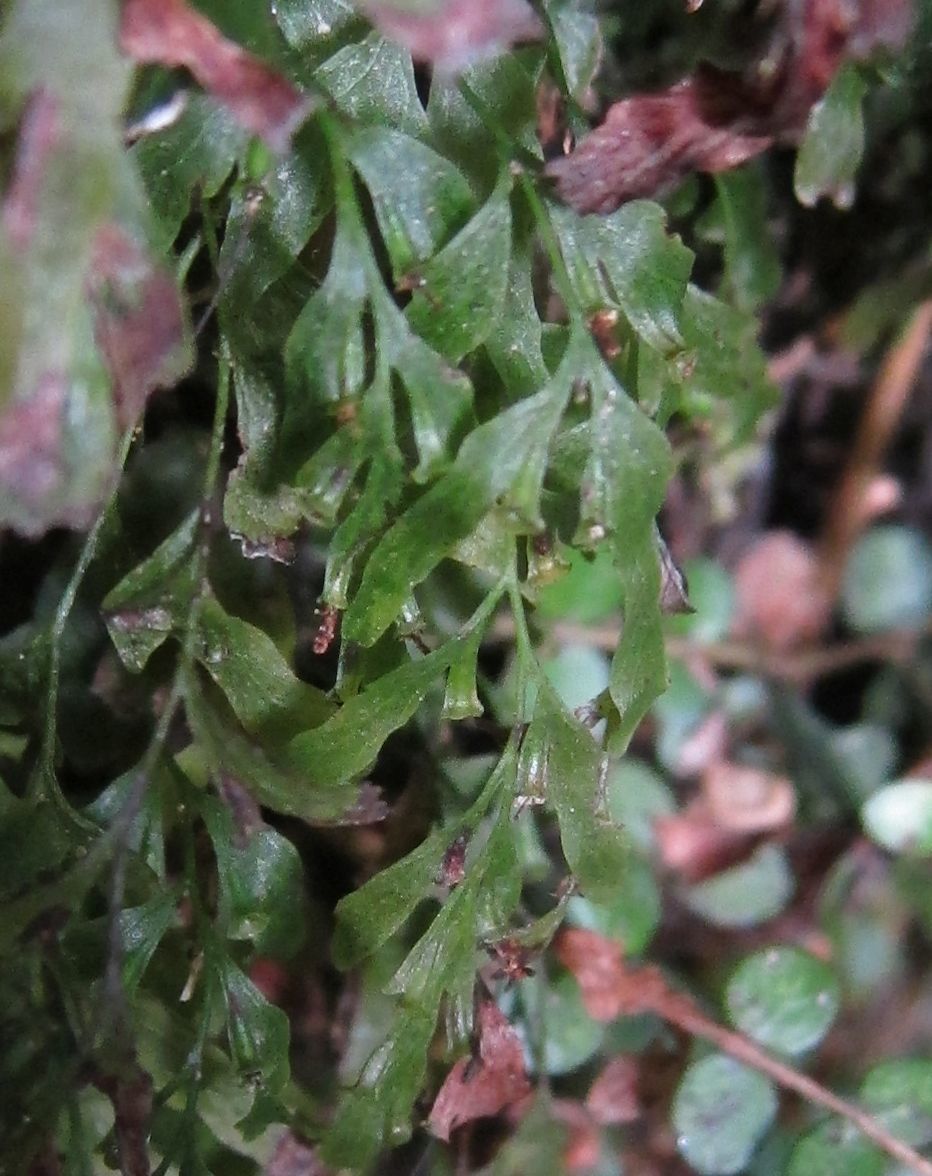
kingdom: Plantae
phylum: Tracheophyta
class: Polypodiopsida
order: Hymenophyllales
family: Hymenophyllaceae
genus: Polyphlebium
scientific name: Polyphlebium venosum
